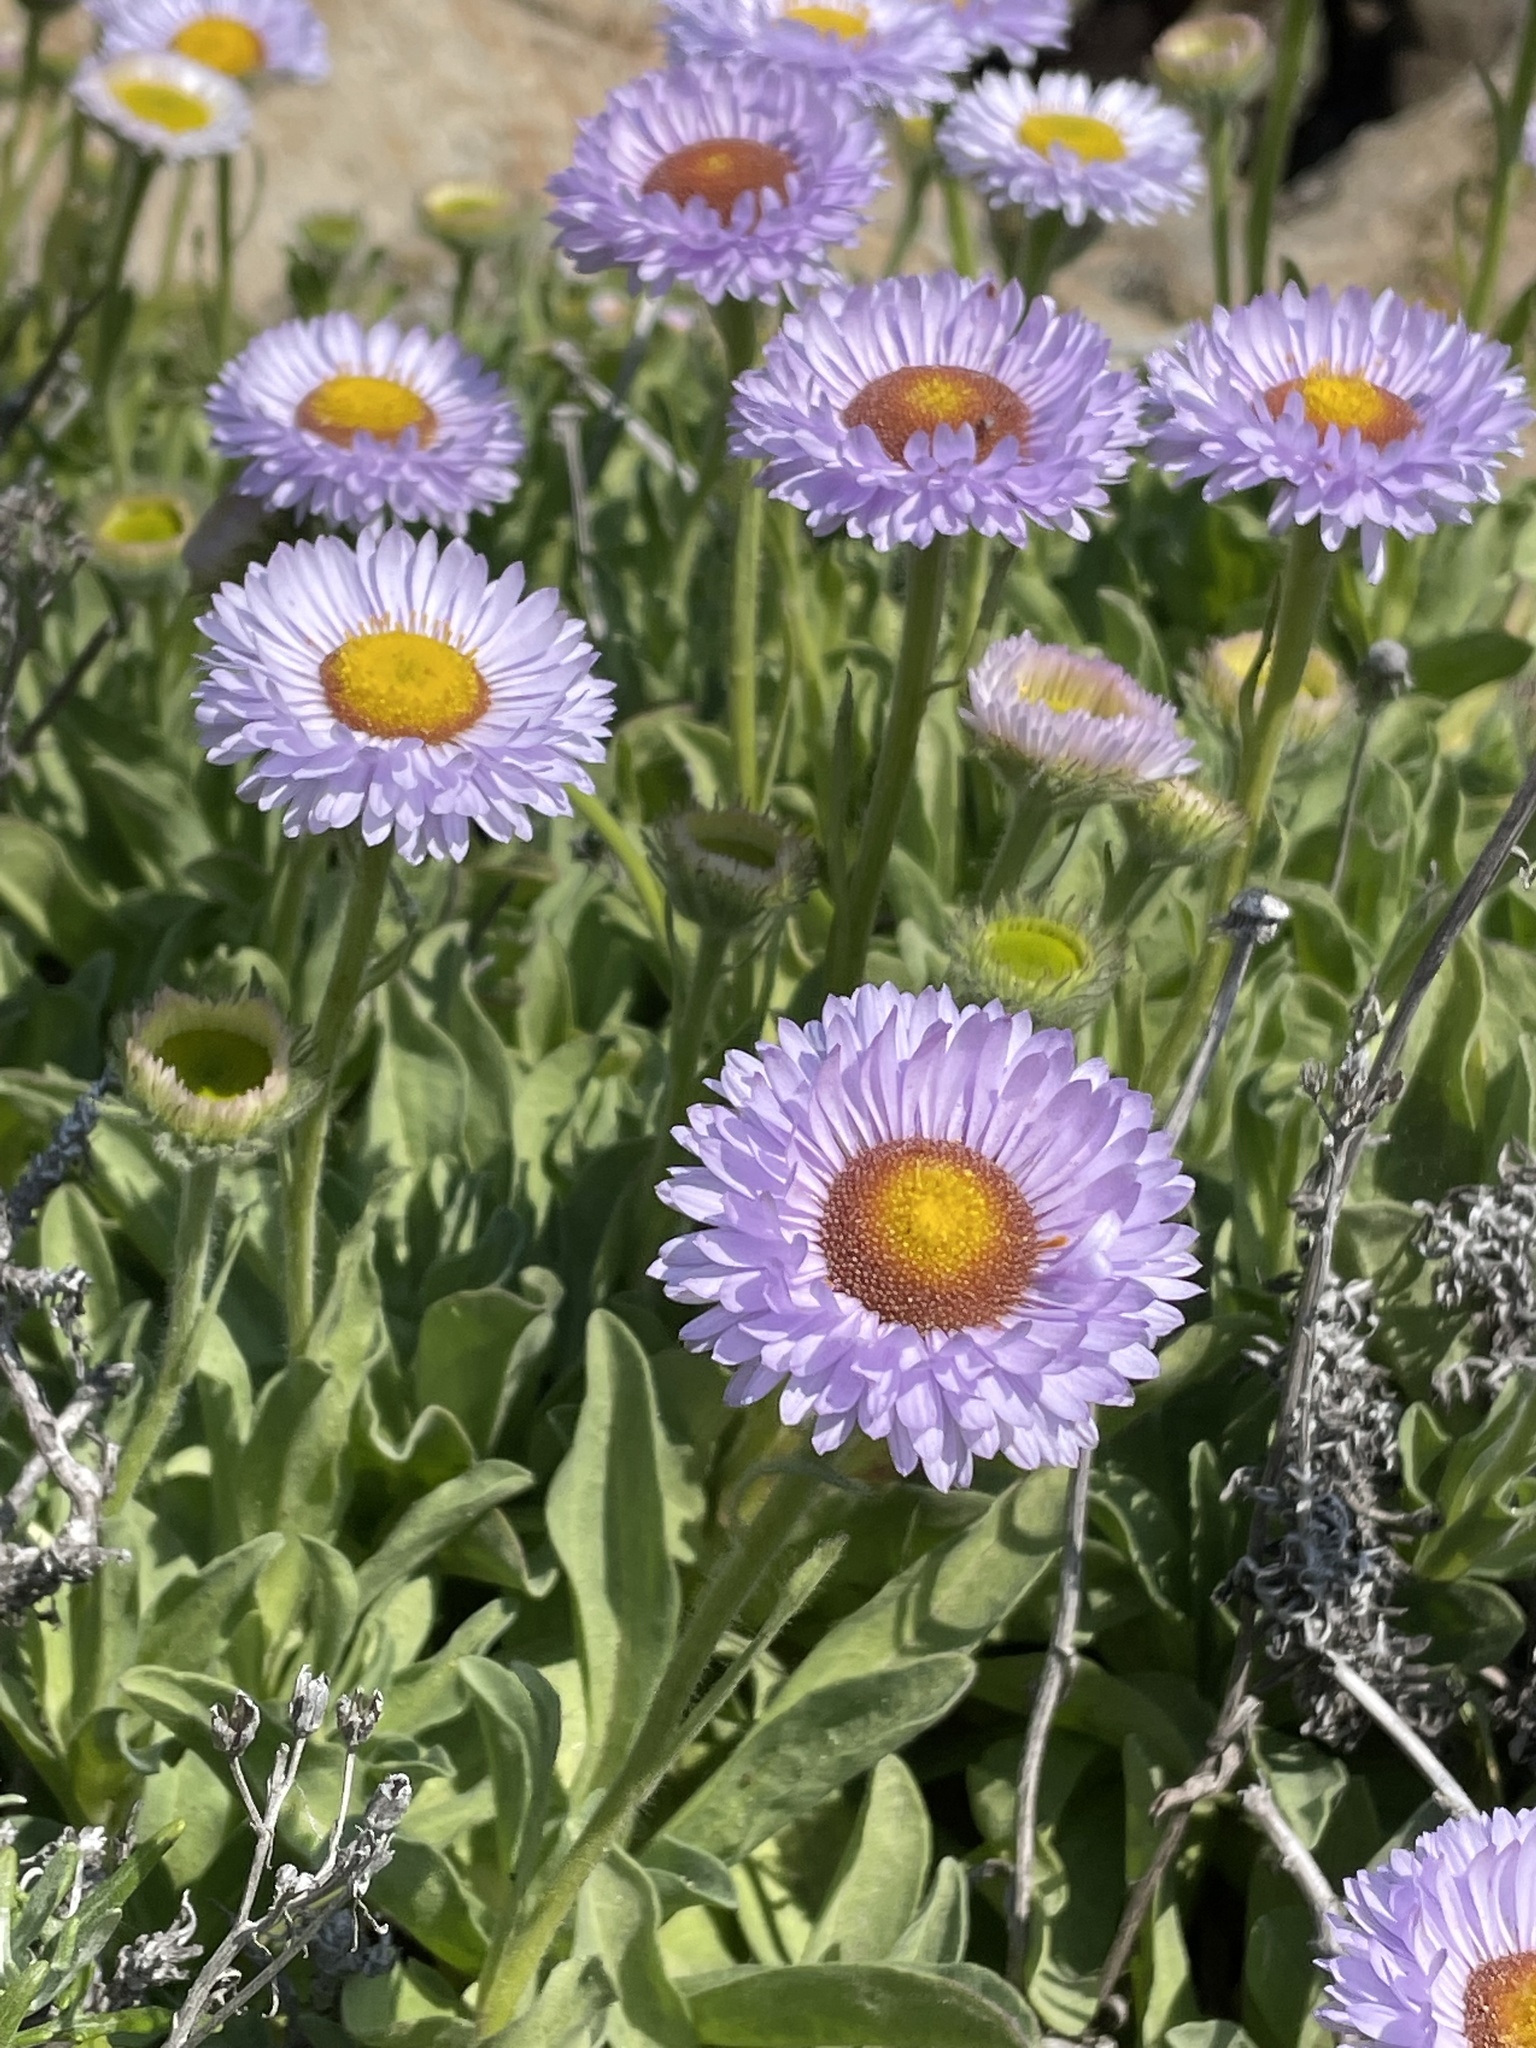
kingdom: Plantae
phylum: Tracheophyta
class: Magnoliopsida
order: Asterales
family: Asteraceae
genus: Erigeron
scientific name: Erigeron glaucus
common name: Seaside daisy
